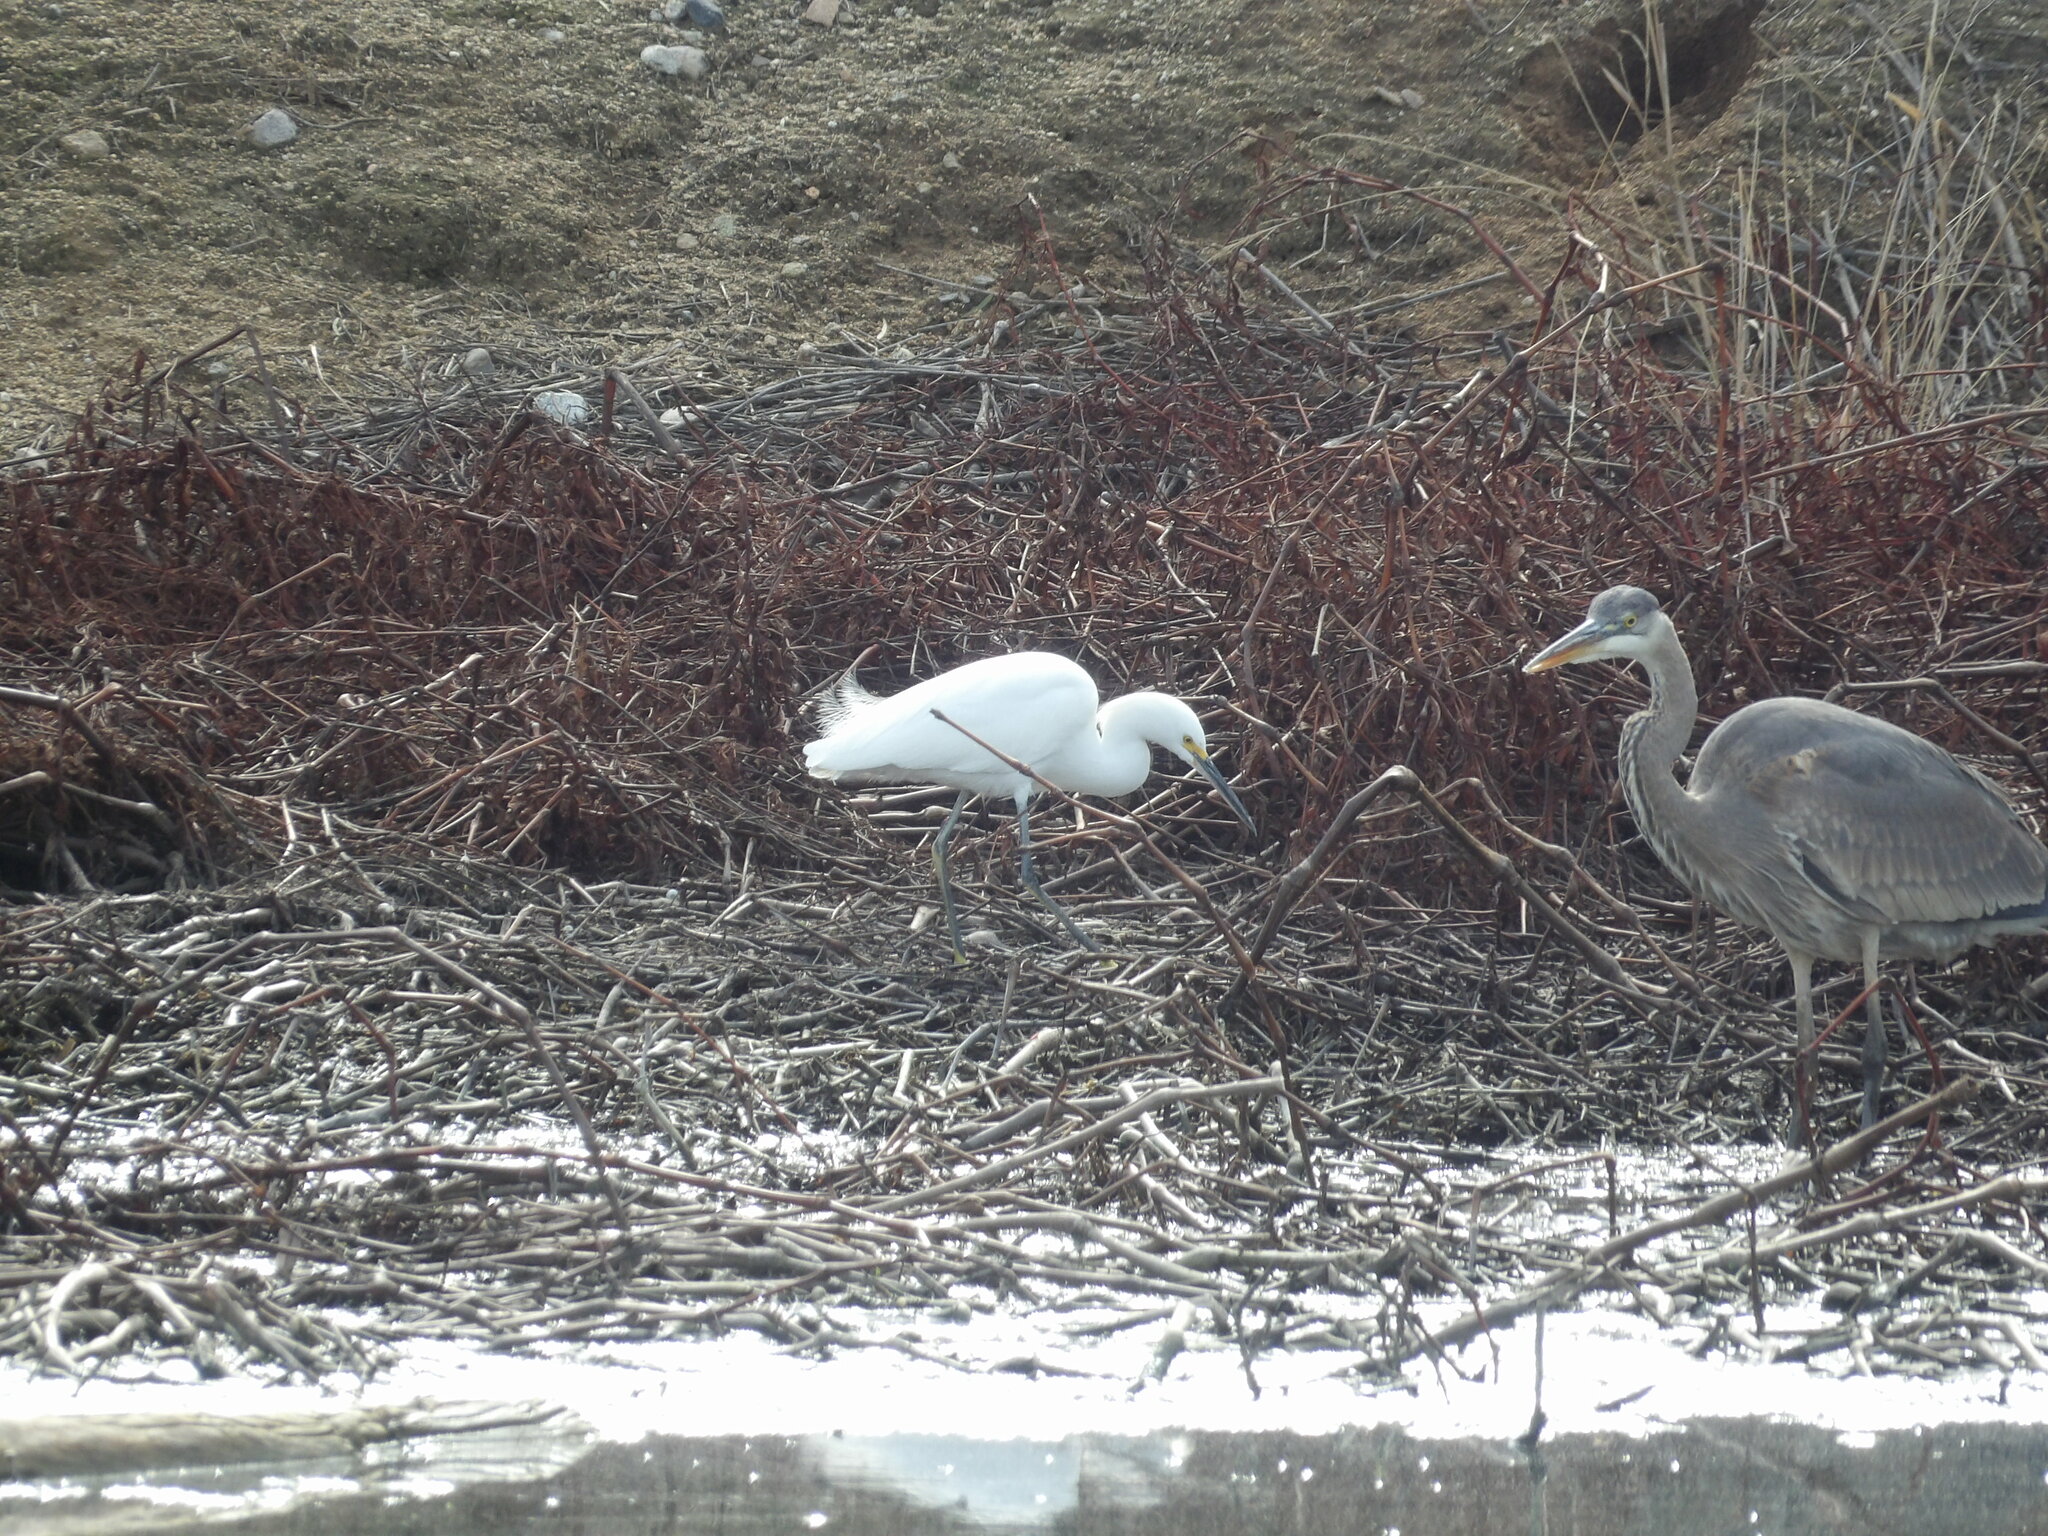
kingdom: Animalia
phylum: Chordata
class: Aves
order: Pelecaniformes
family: Ardeidae
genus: Egretta
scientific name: Egretta thula
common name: Snowy egret
